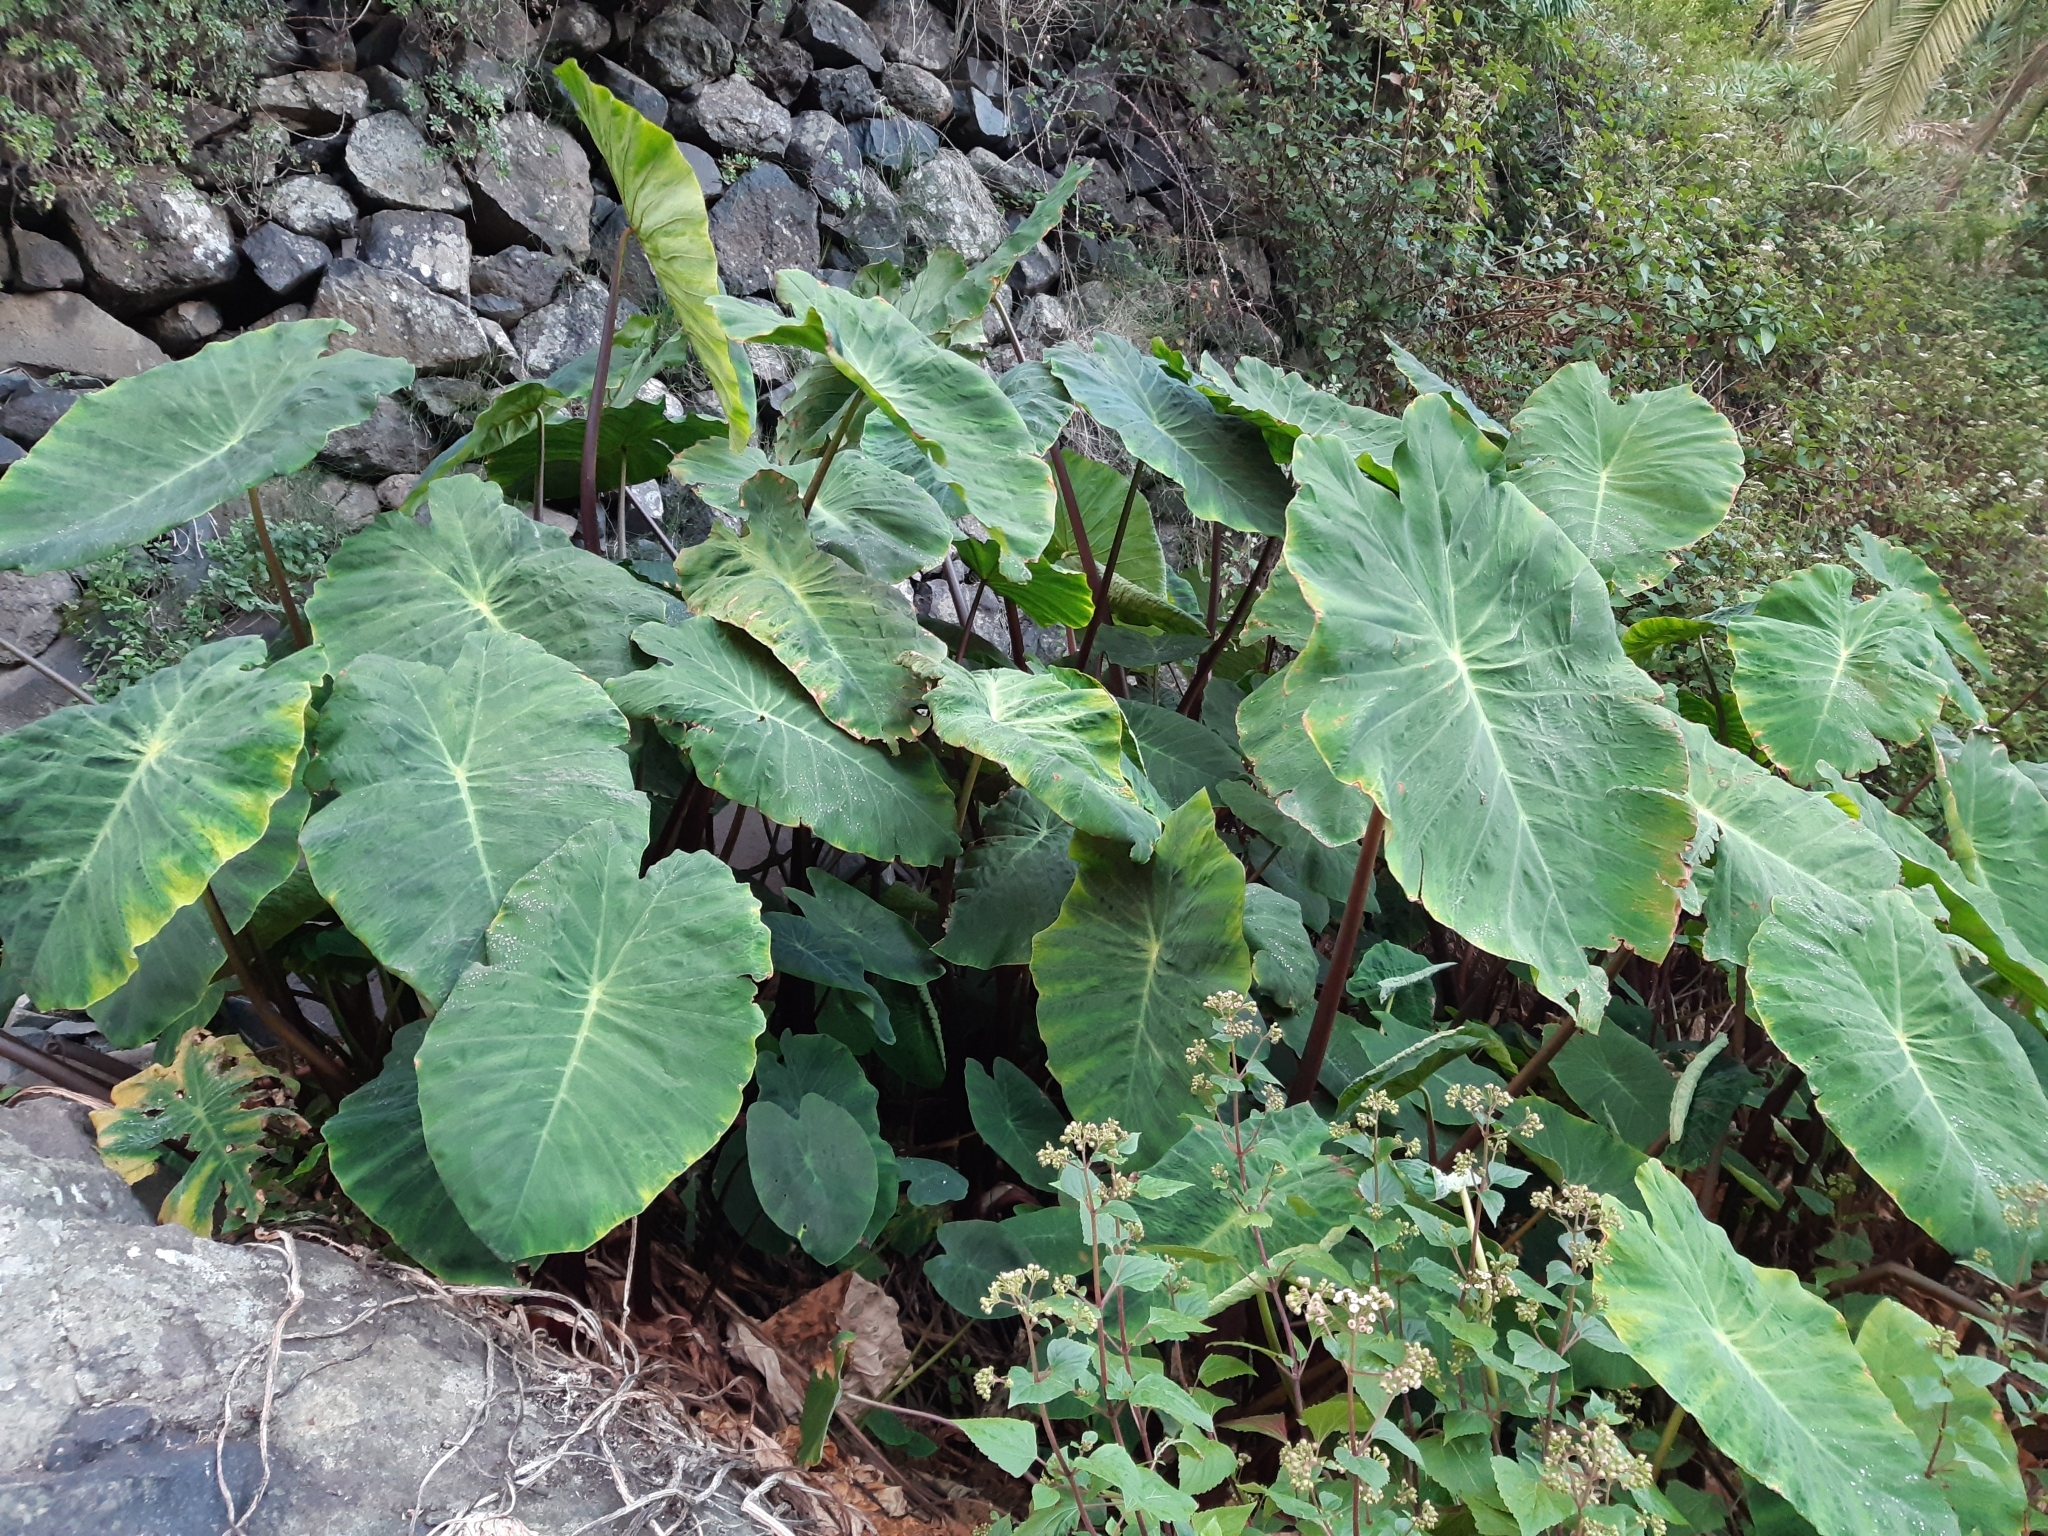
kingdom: Plantae
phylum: Tracheophyta
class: Liliopsida
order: Alismatales
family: Araceae
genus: Colocasia
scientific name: Colocasia esculenta
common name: Taro
